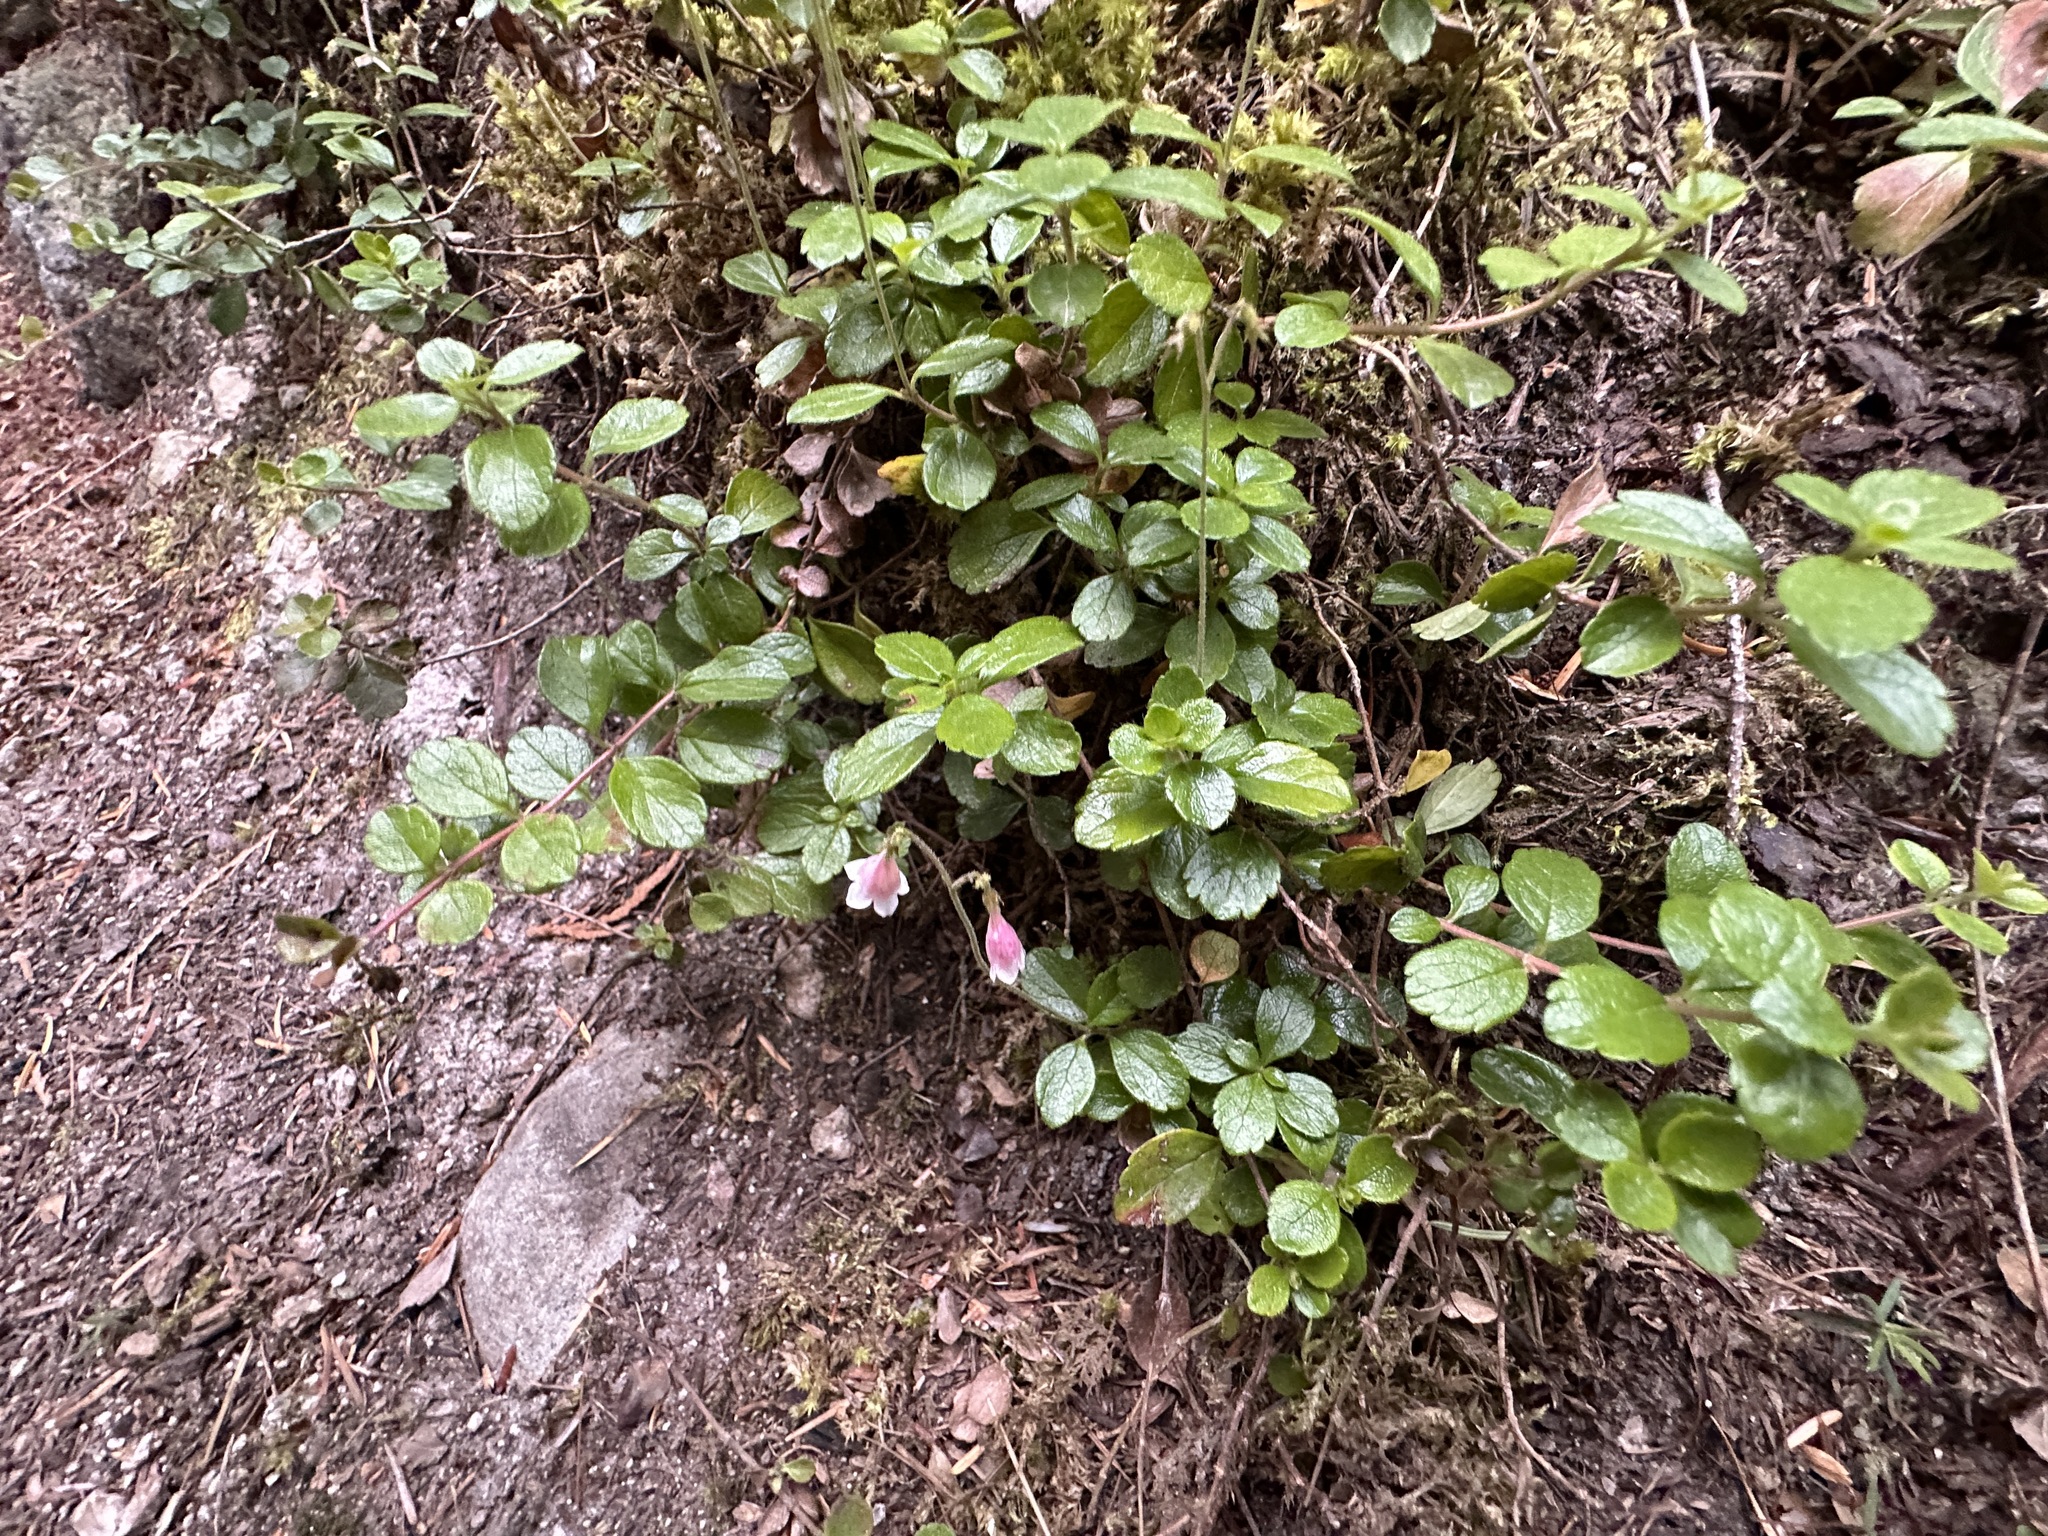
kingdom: Plantae
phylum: Tracheophyta
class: Magnoliopsida
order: Dipsacales
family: Caprifoliaceae
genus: Linnaea
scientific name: Linnaea borealis
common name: Twinflower
